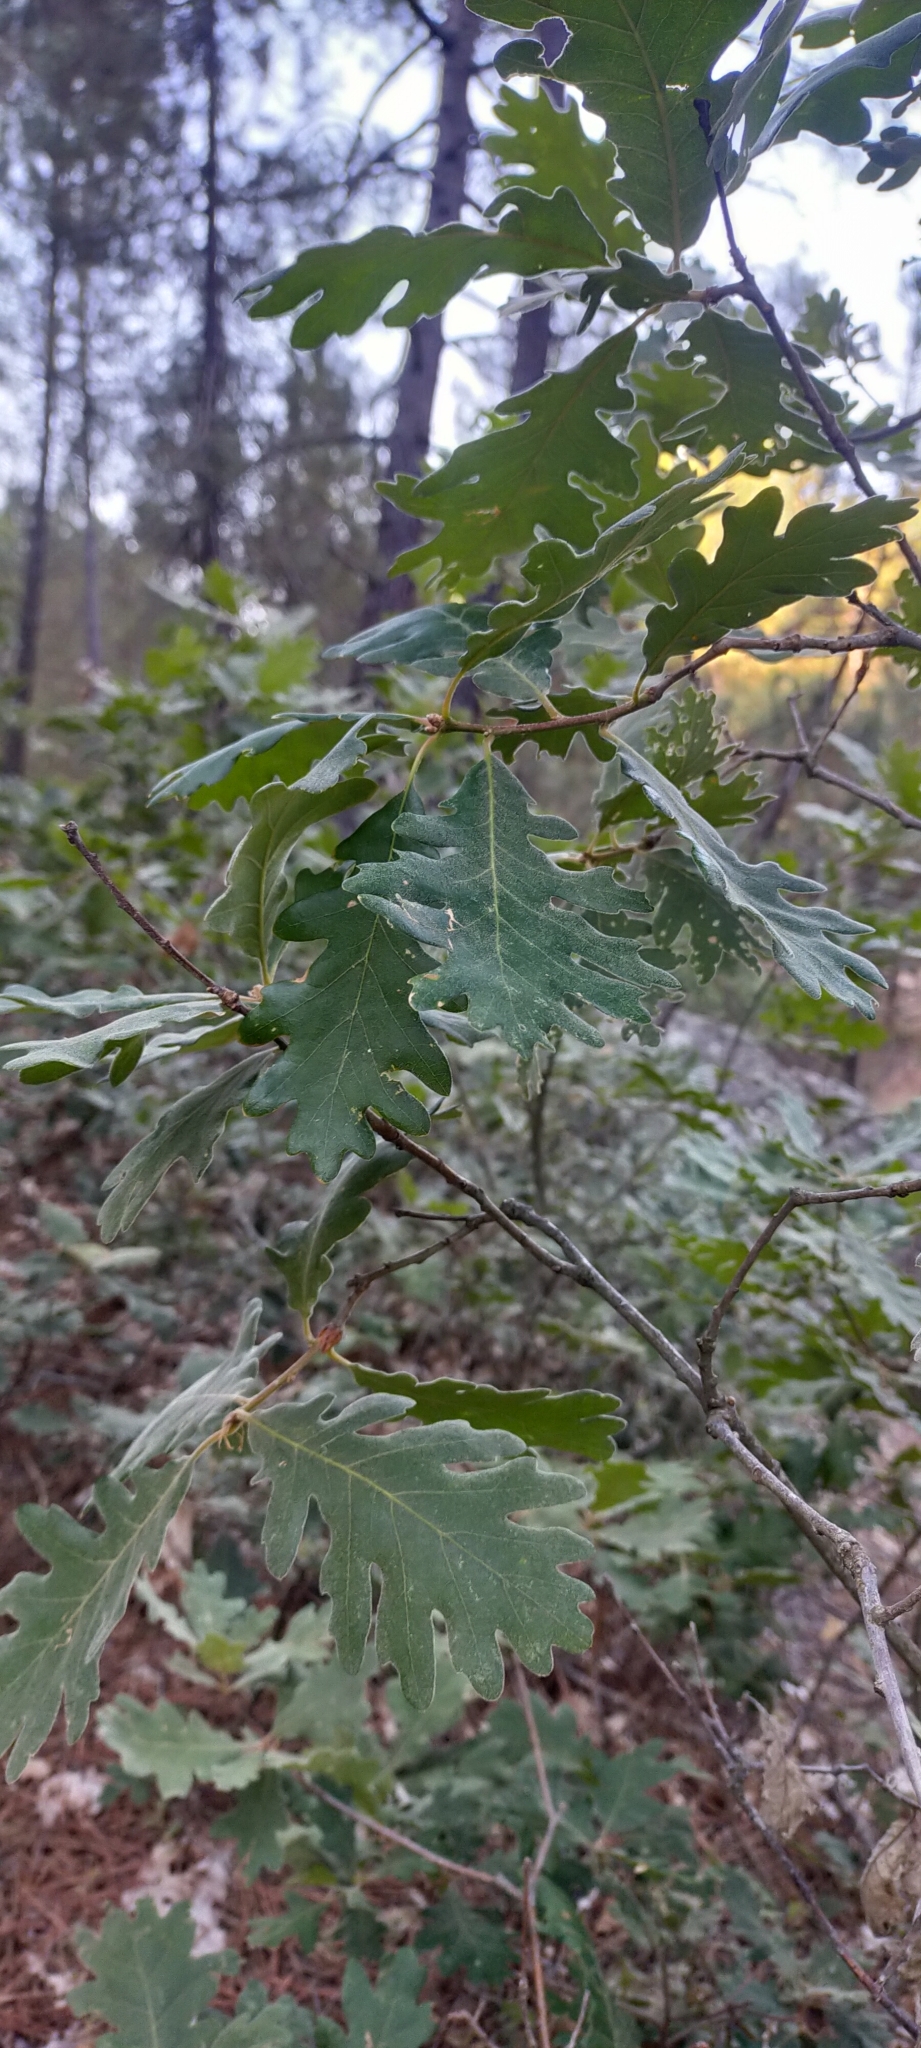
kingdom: Plantae
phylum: Tracheophyta
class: Magnoliopsida
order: Fagales
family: Fagaceae
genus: Quercus
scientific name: Quercus pyrenaica
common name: Pyrenean oak
